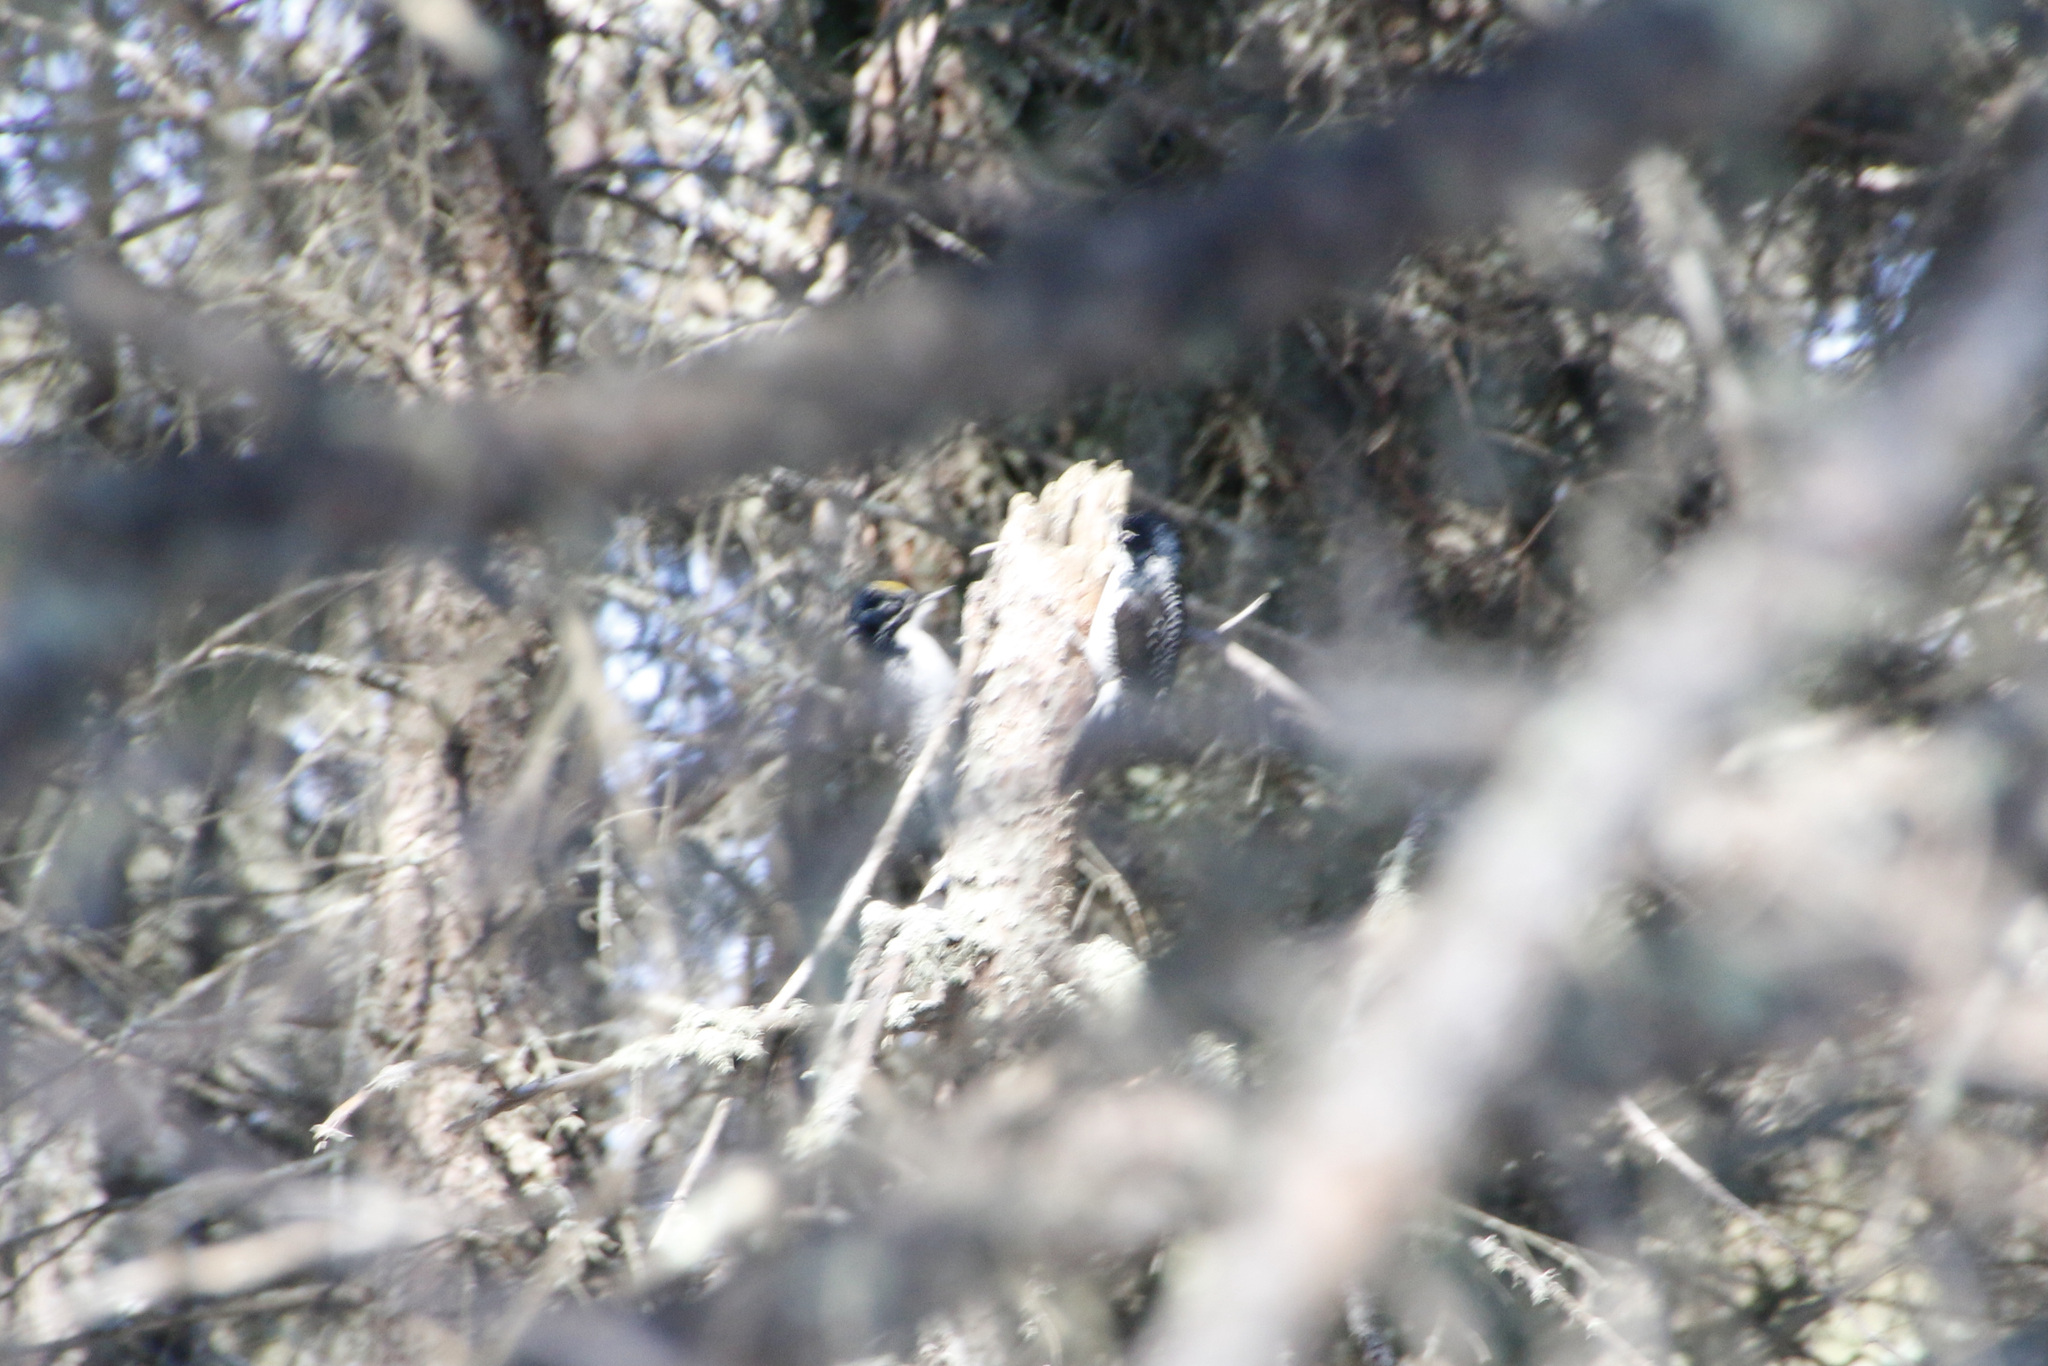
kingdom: Animalia
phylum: Chordata
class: Aves
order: Piciformes
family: Picidae
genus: Picoides
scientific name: Picoides dorsalis
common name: American three-toed woodpecker
